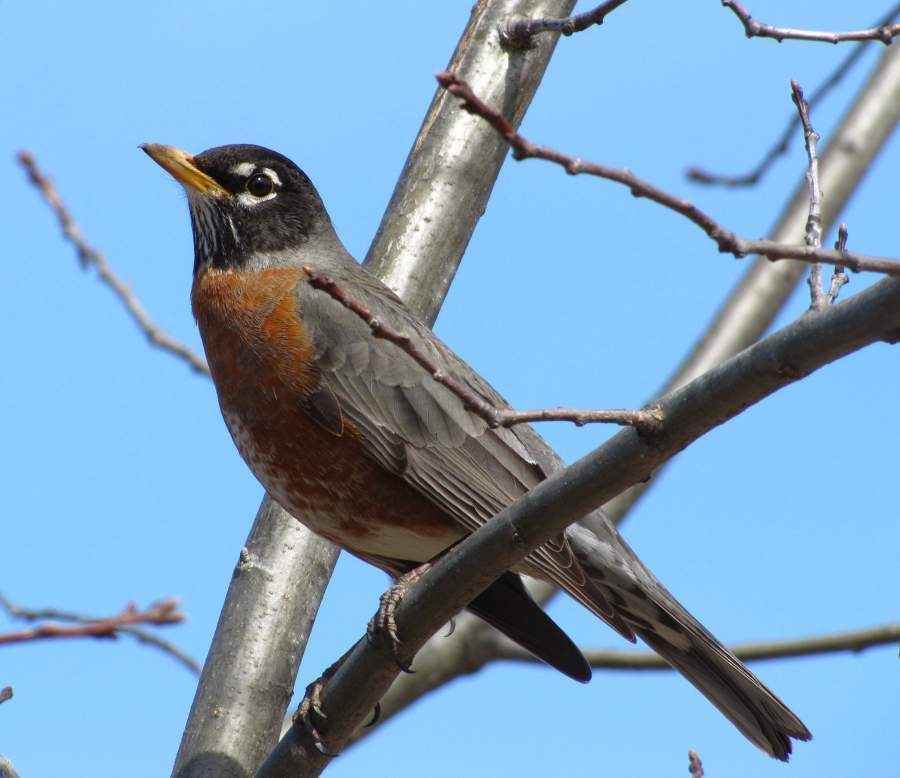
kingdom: Animalia
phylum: Chordata
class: Aves
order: Passeriformes
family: Turdidae
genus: Turdus
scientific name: Turdus migratorius
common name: American robin
